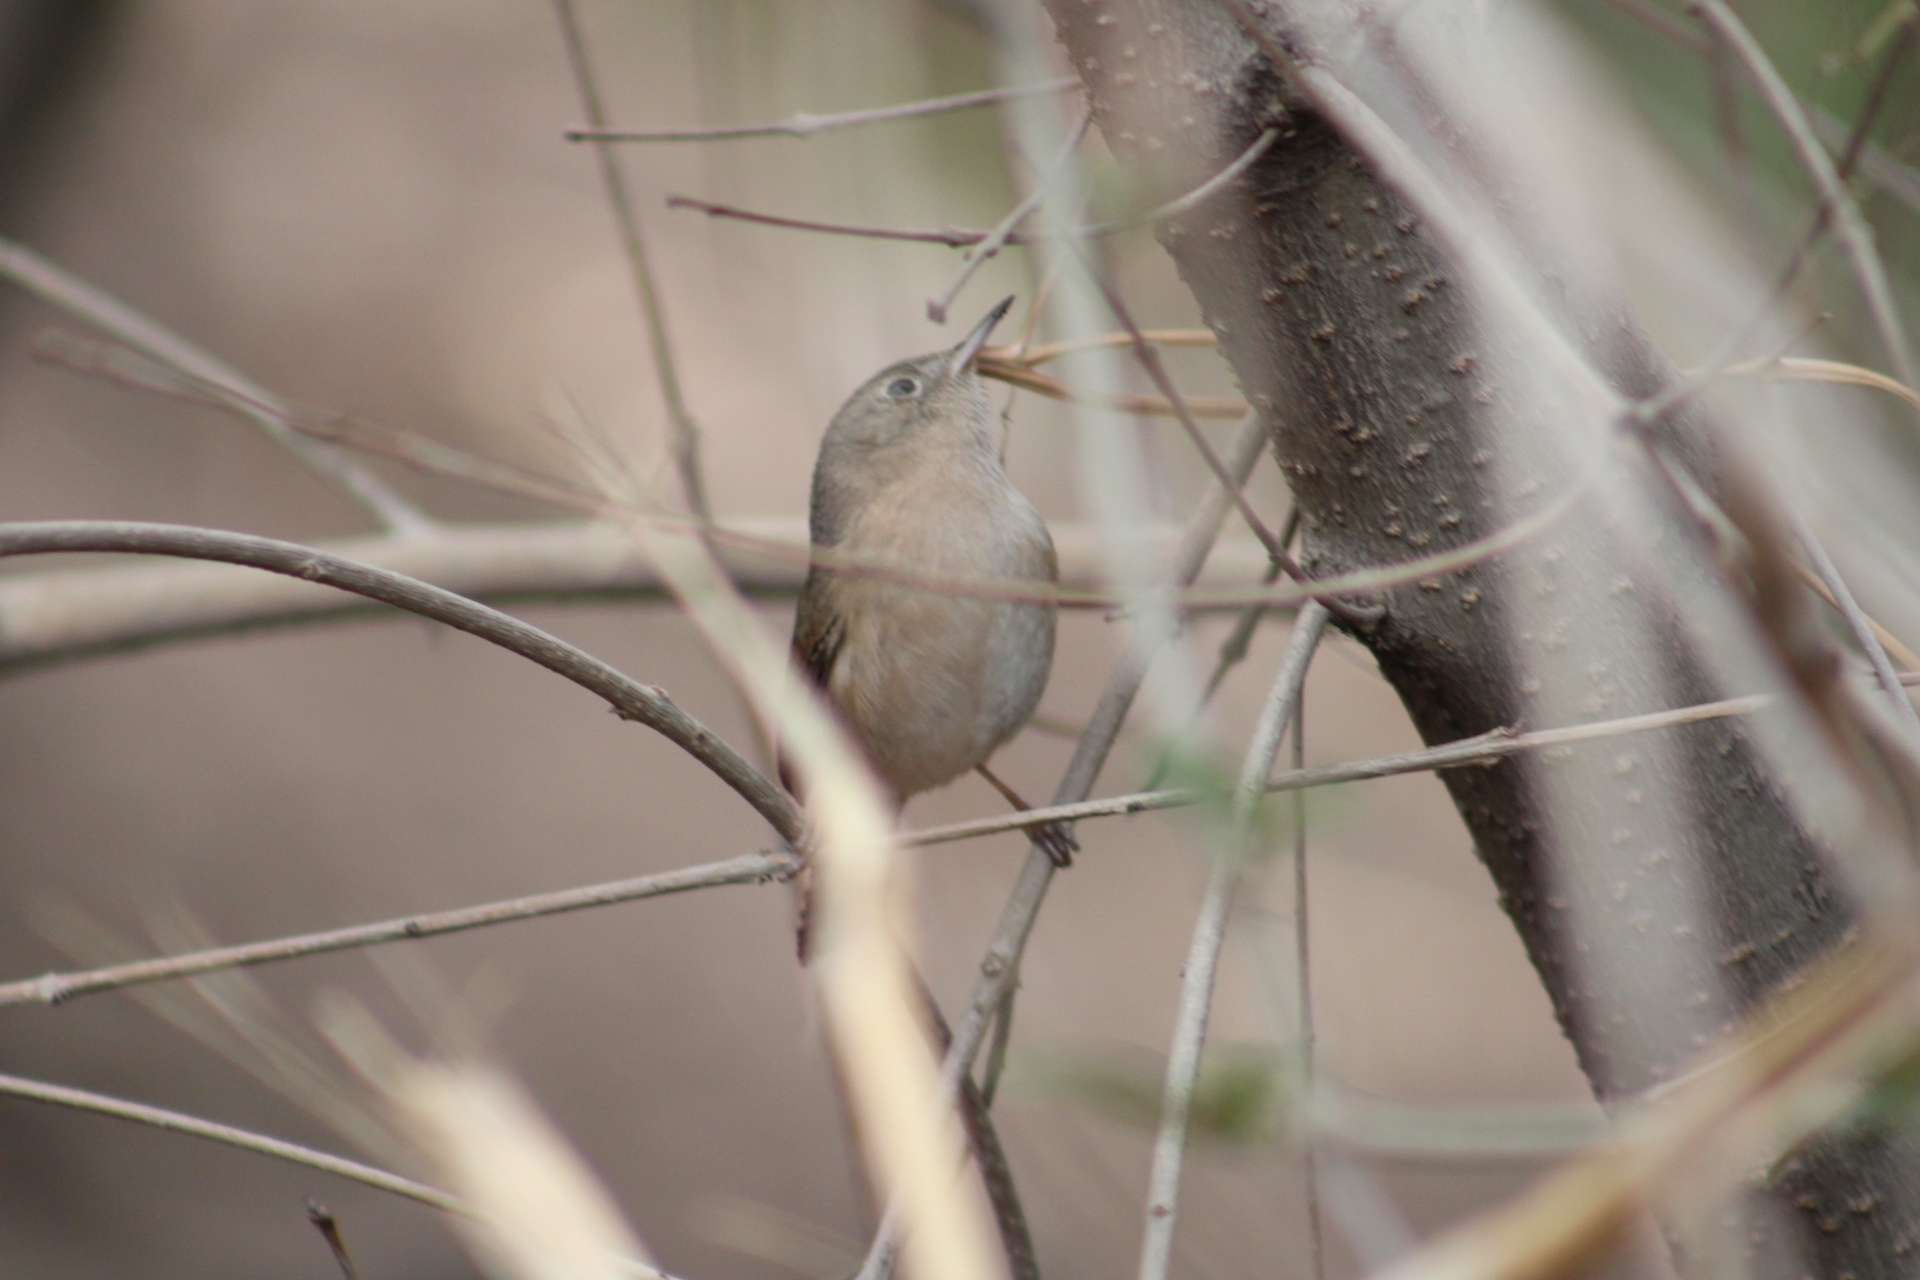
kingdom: Animalia
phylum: Chordata
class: Aves
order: Passeriformes
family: Troglodytidae
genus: Troglodytes
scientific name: Troglodytes aedon
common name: House wren
